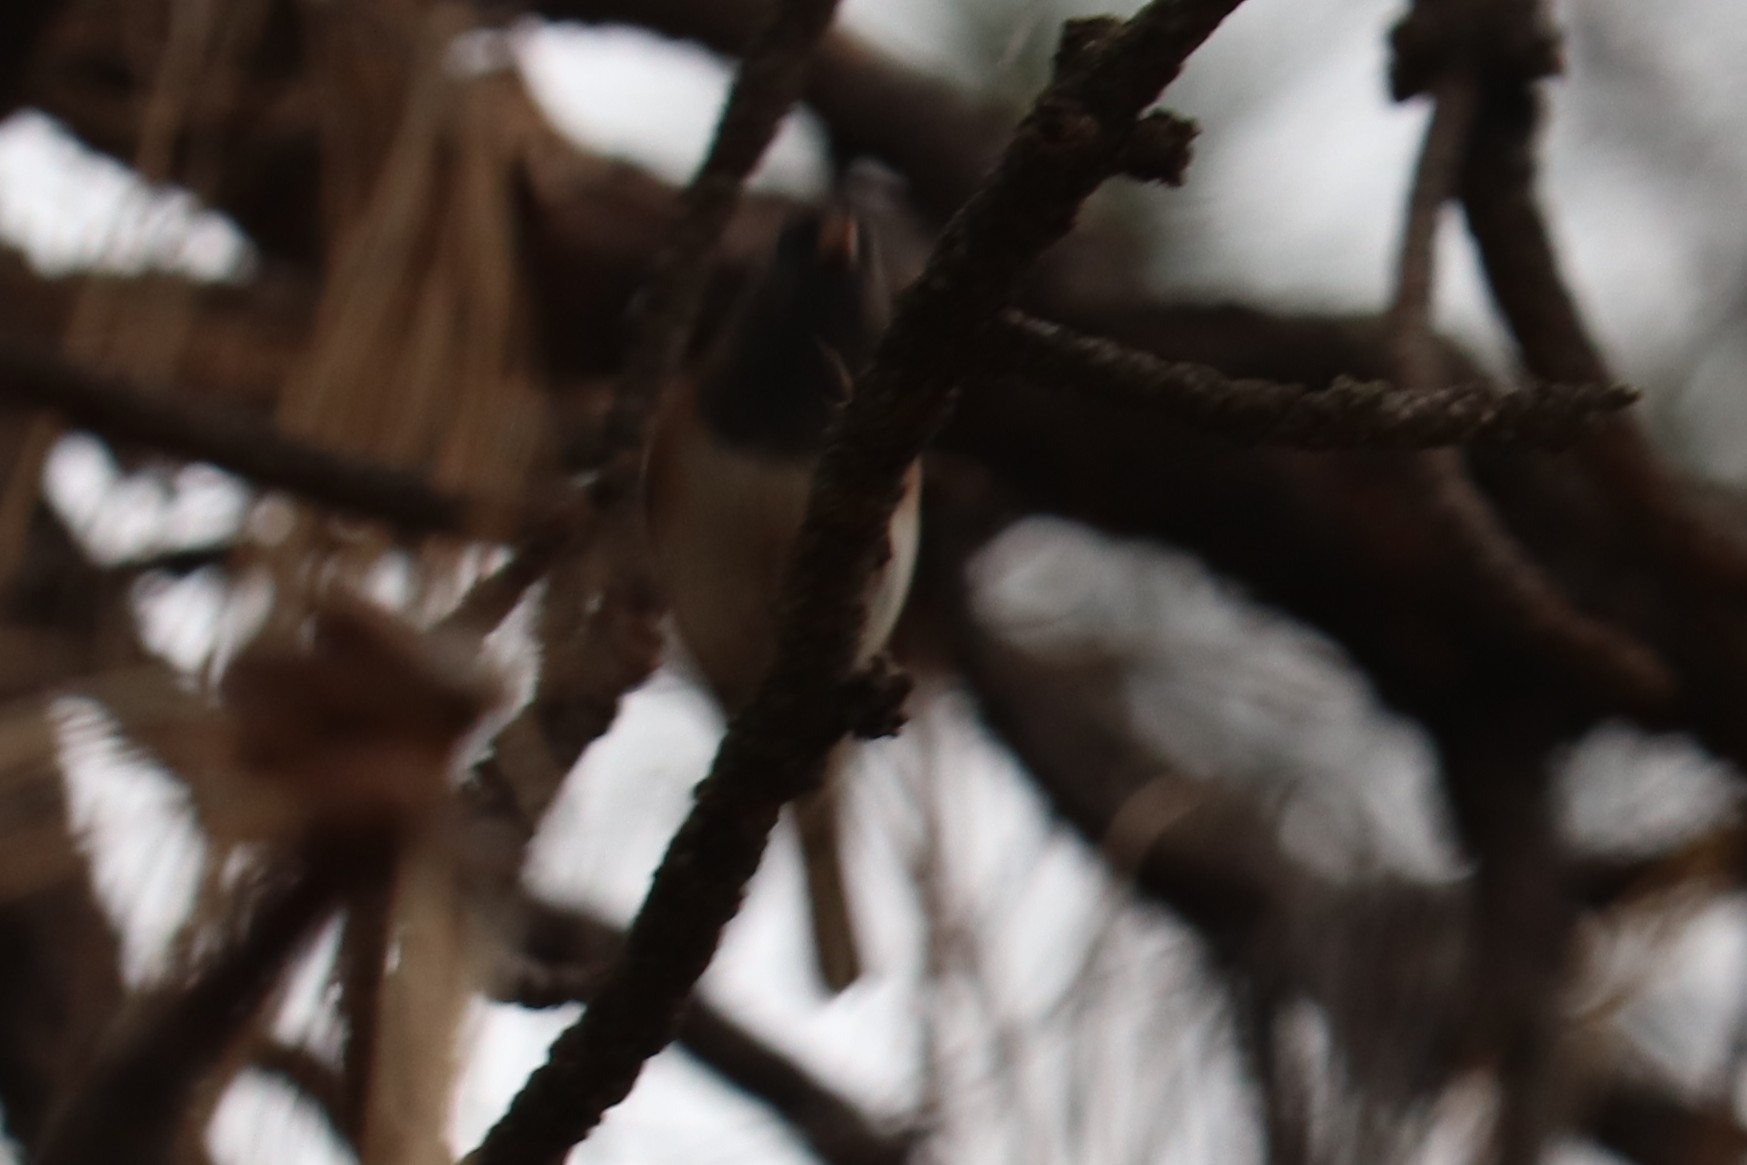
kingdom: Animalia
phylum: Chordata
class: Aves
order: Passeriformes
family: Passerellidae
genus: Junco
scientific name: Junco hyemalis
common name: Dark-eyed junco
